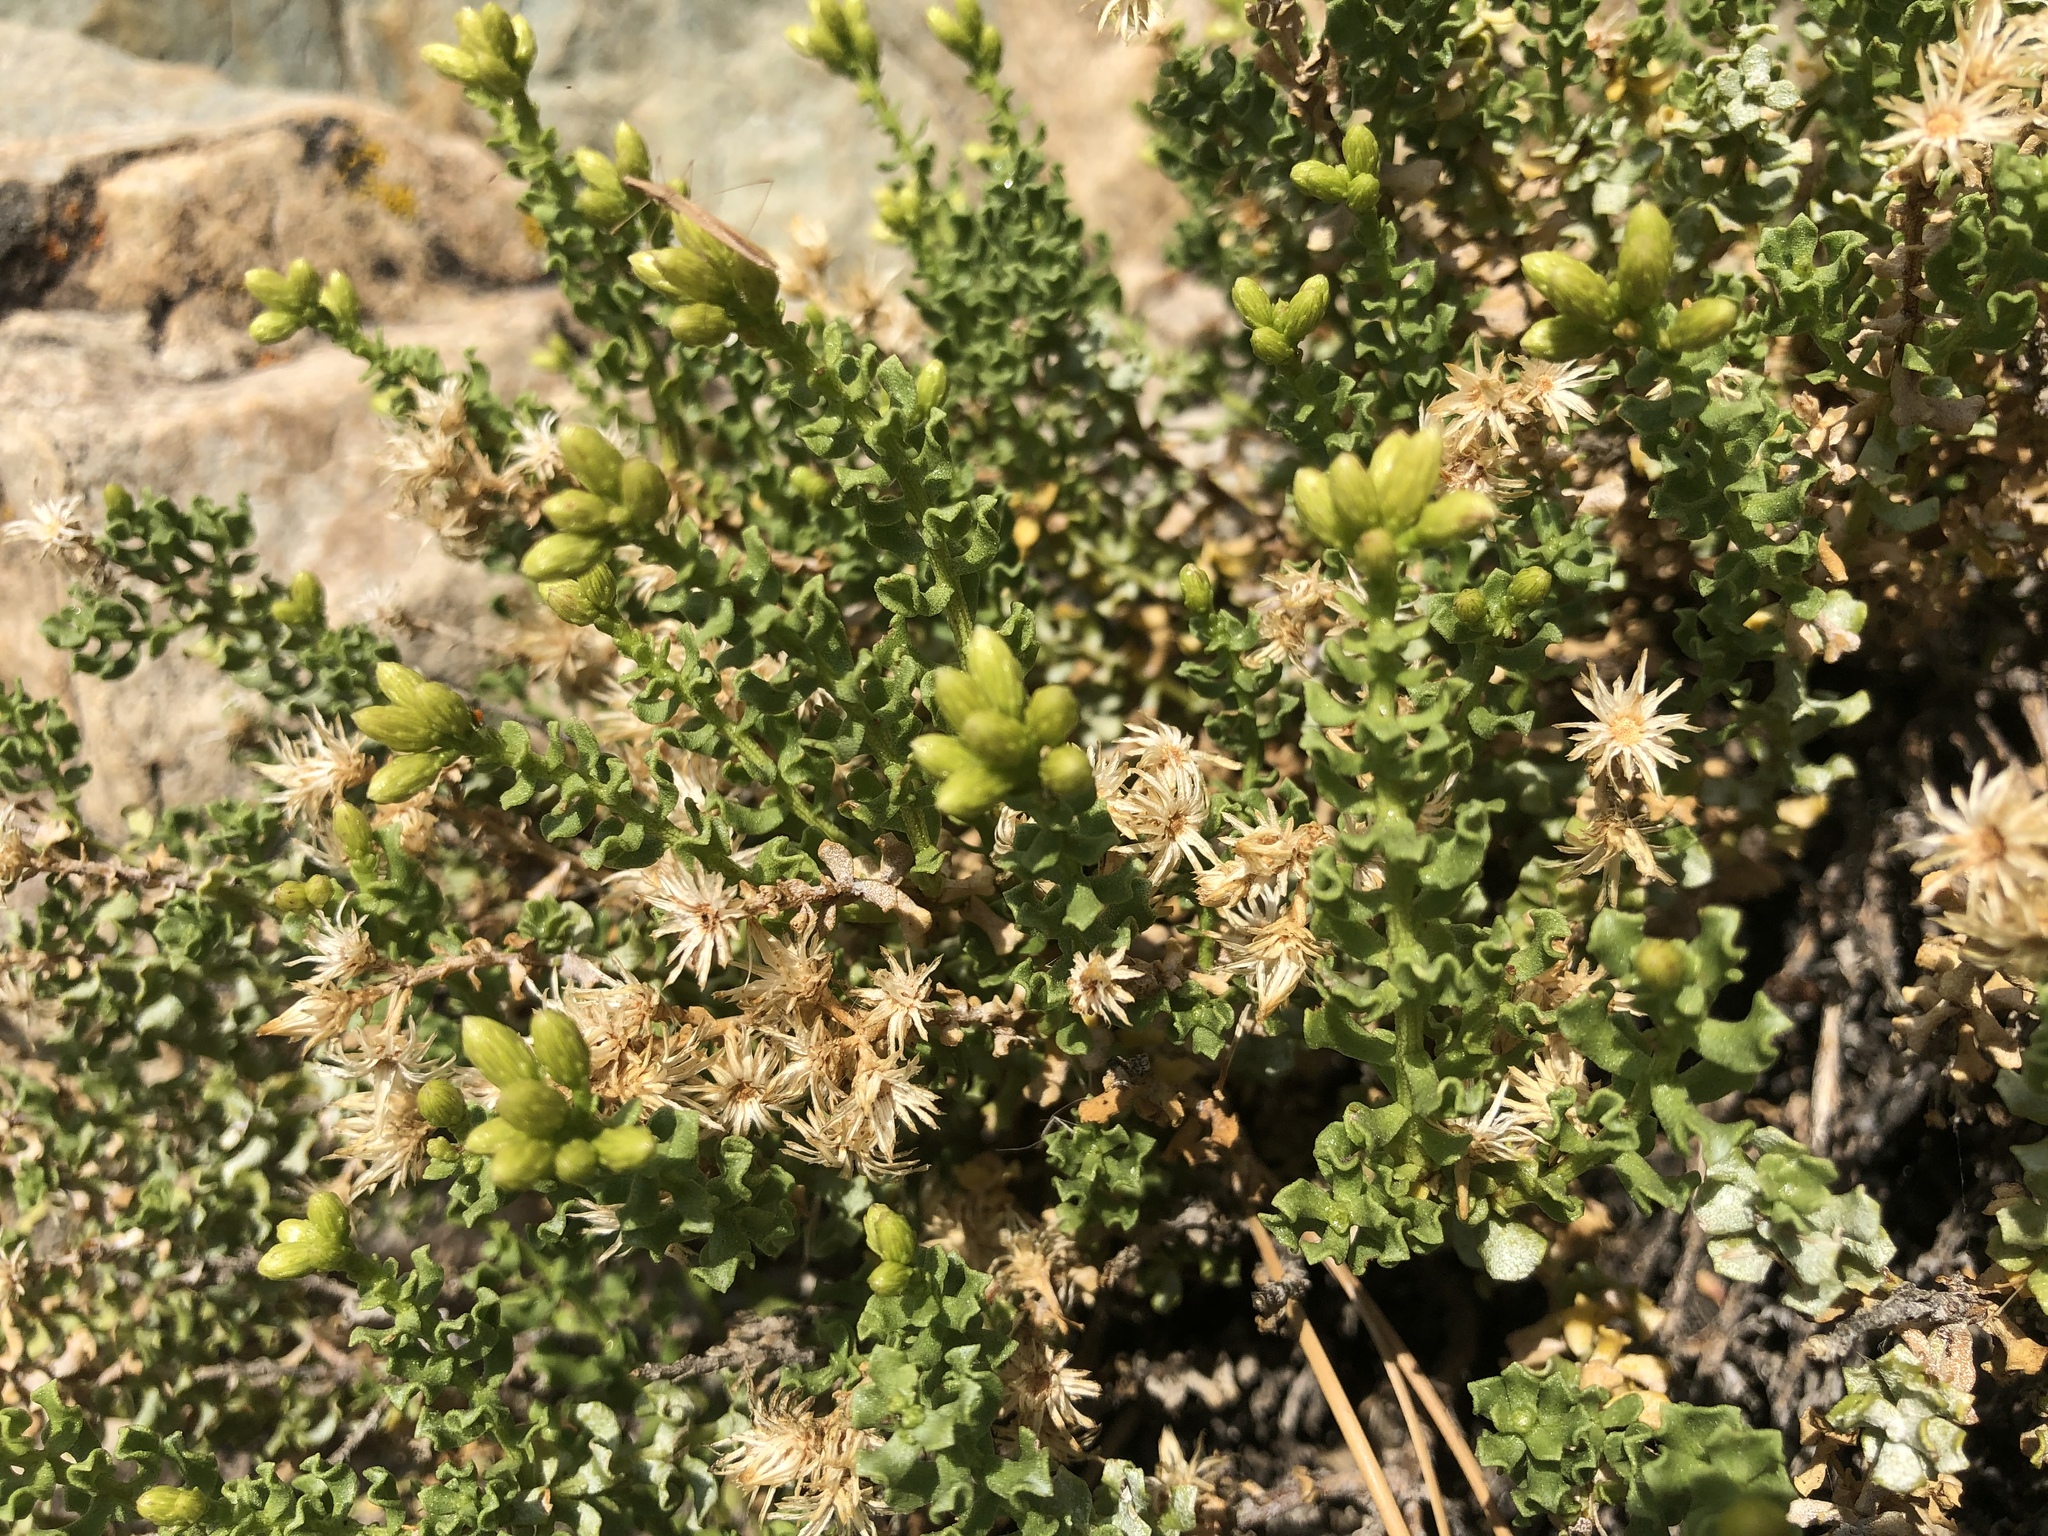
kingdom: Plantae
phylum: Tracheophyta
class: Magnoliopsida
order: Asterales
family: Asteraceae
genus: Ericameria
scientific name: Ericameria cuneata
